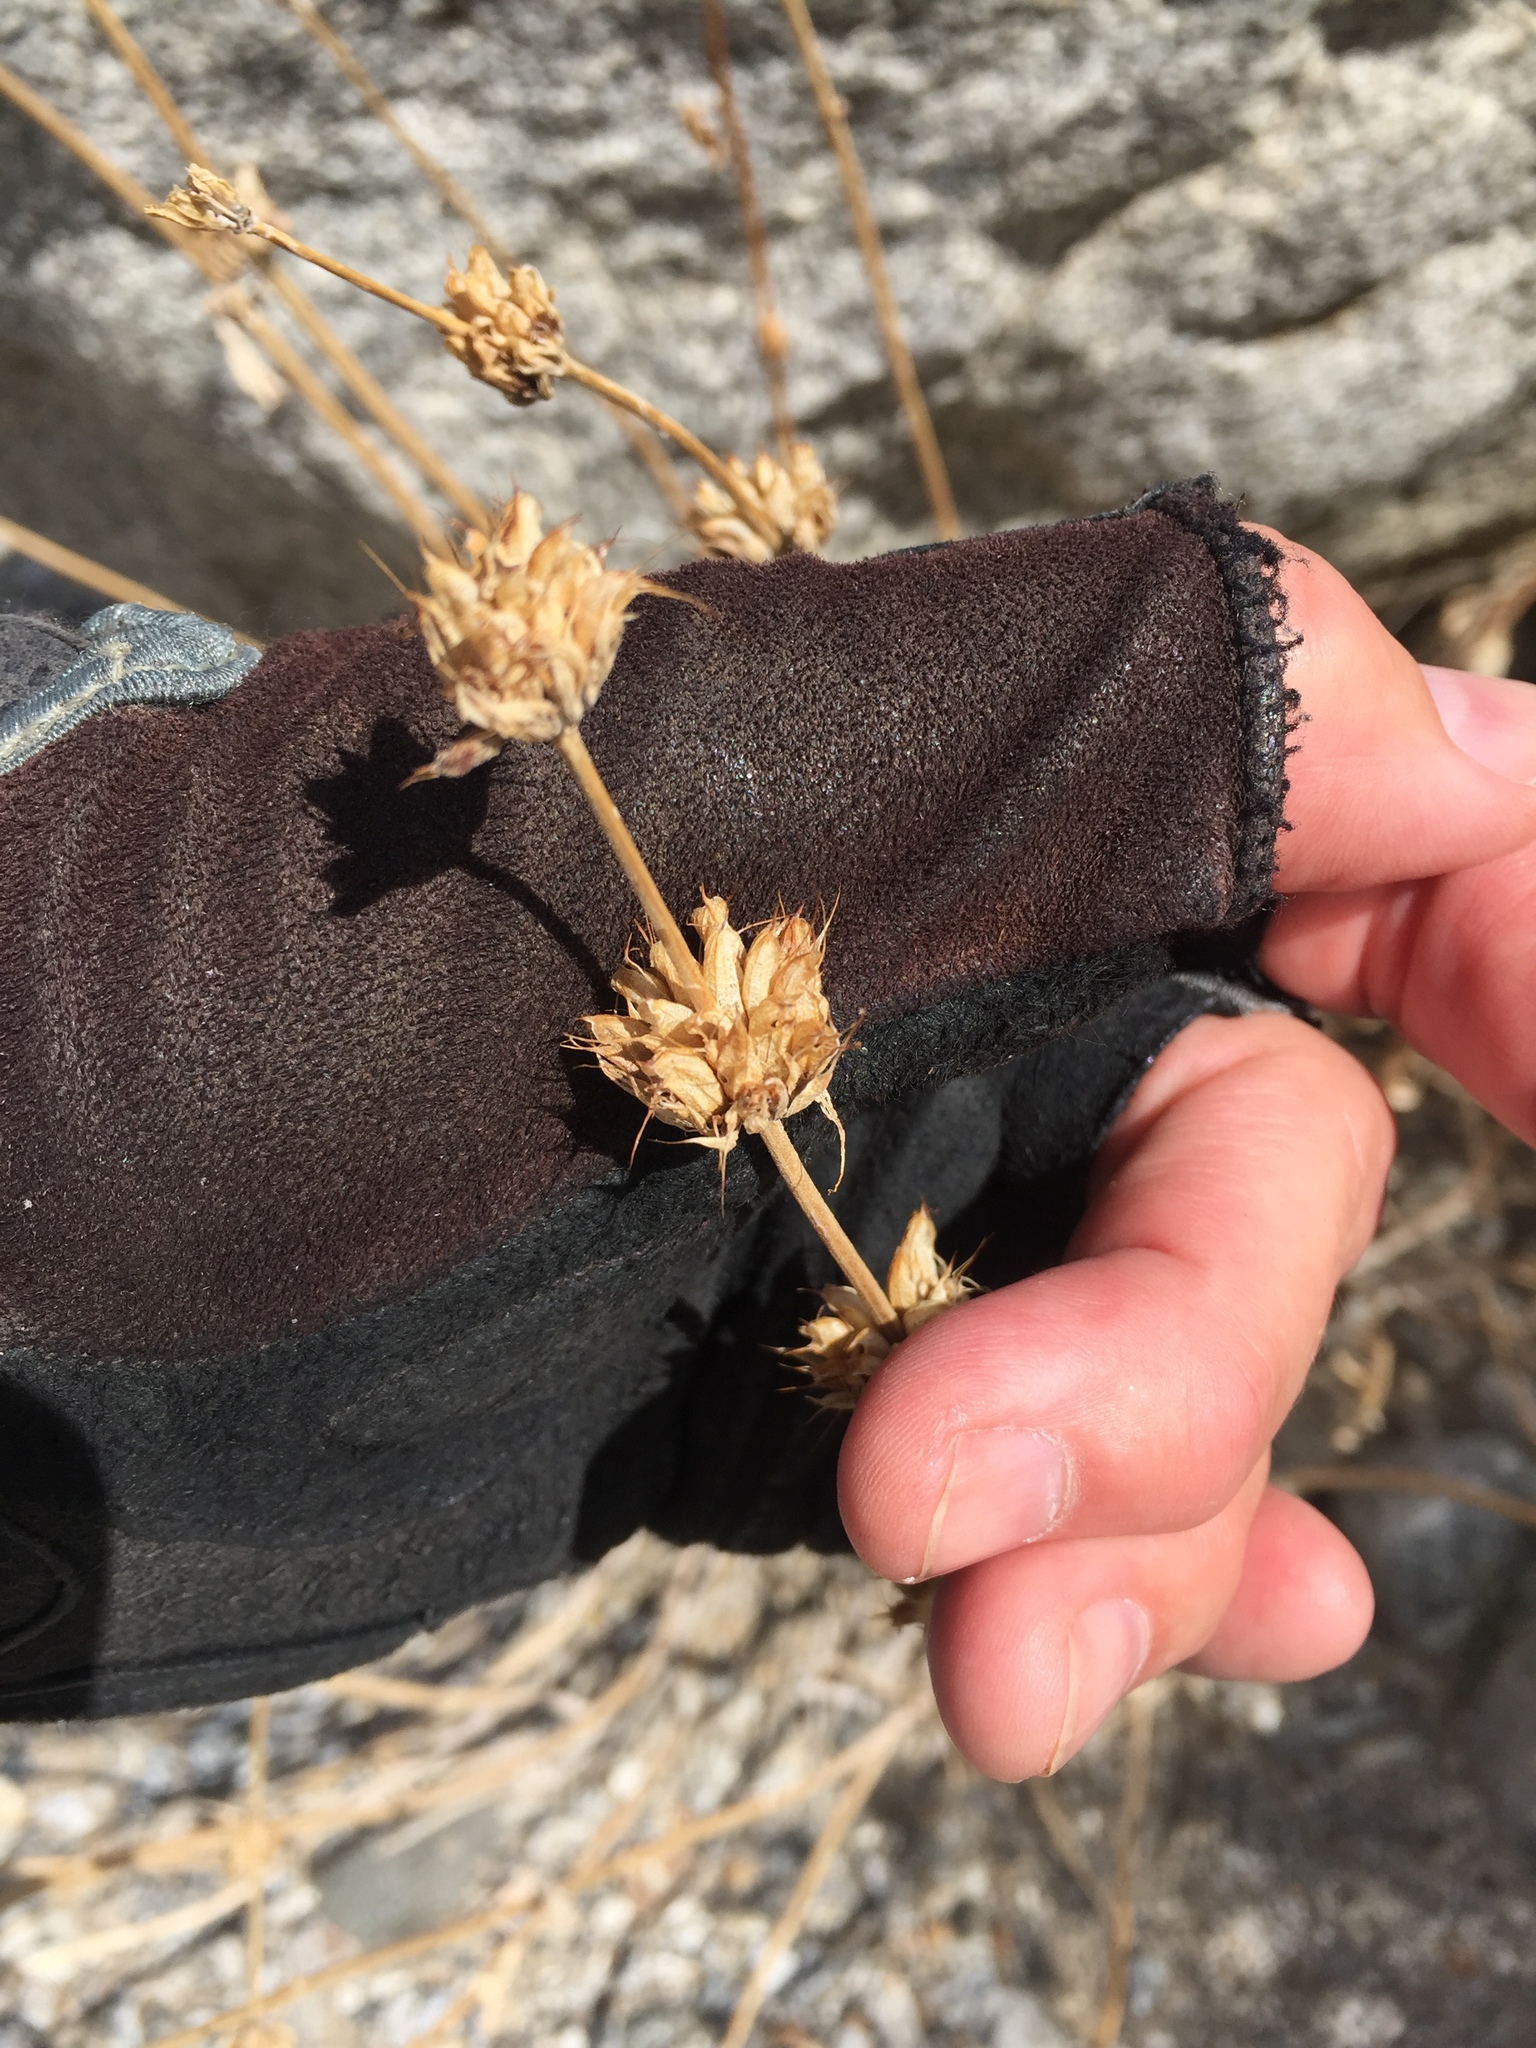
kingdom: Plantae
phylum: Tracheophyta
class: Magnoliopsida
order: Lamiales
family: Lamiaceae
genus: Salvia
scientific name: Salvia vaseyi
